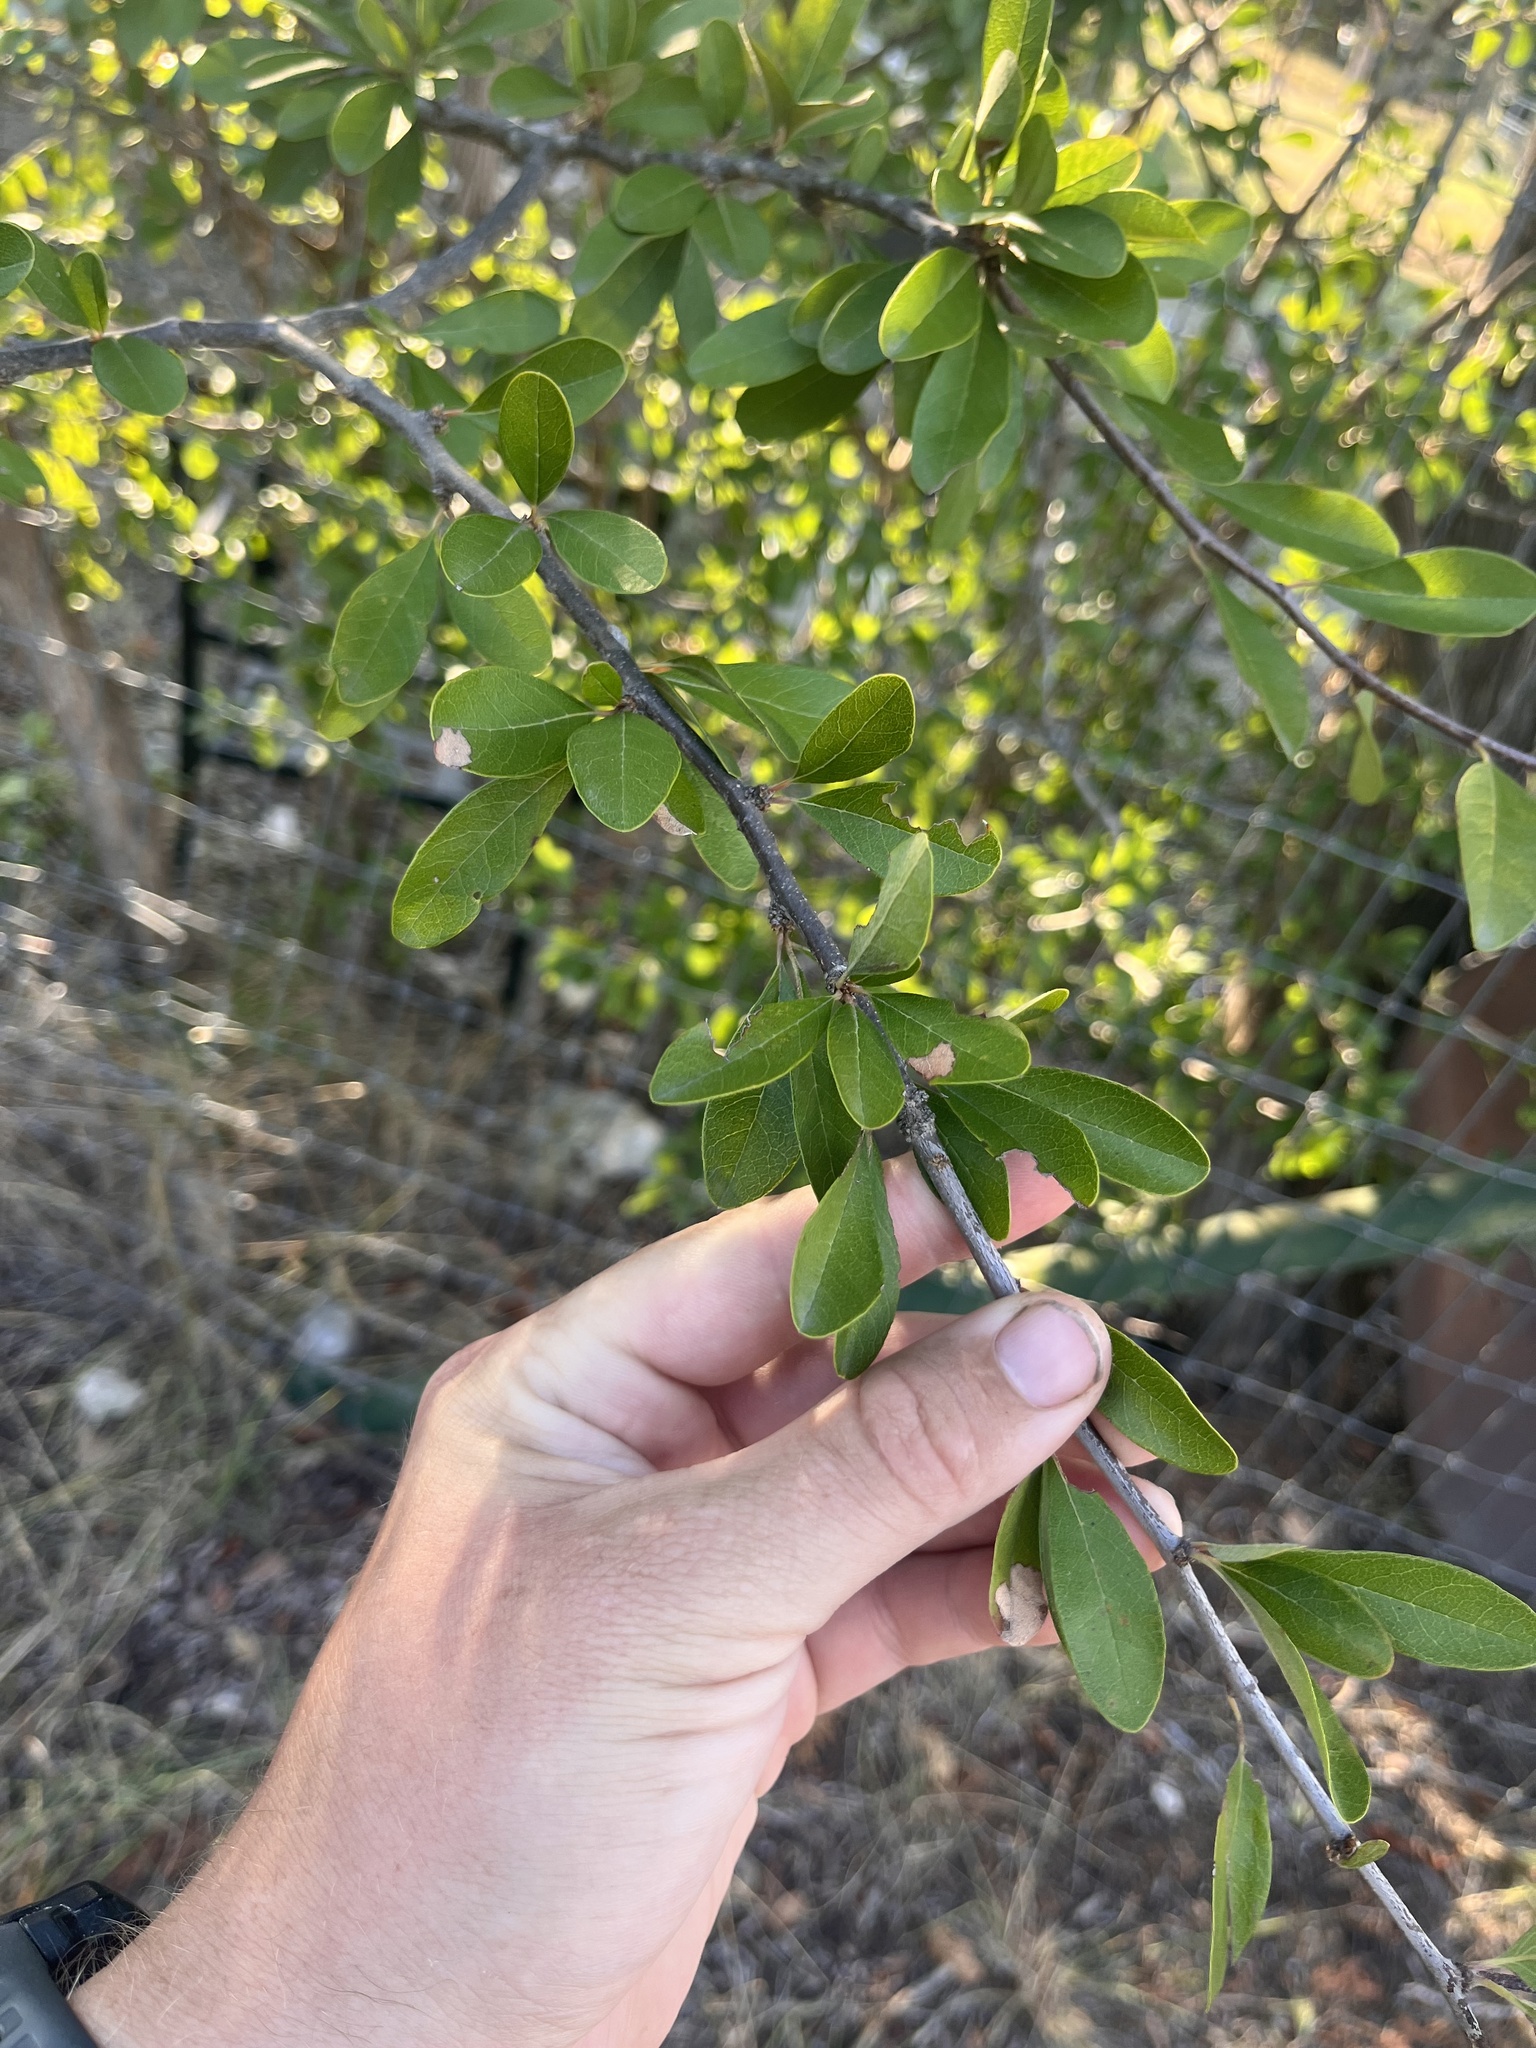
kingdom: Plantae
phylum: Tracheophyta
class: Magnoliopsida
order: Ericales
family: Sapotaceae
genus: Sideroxylon
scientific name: Sideroxylon lanuginosum
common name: Chittamwood
